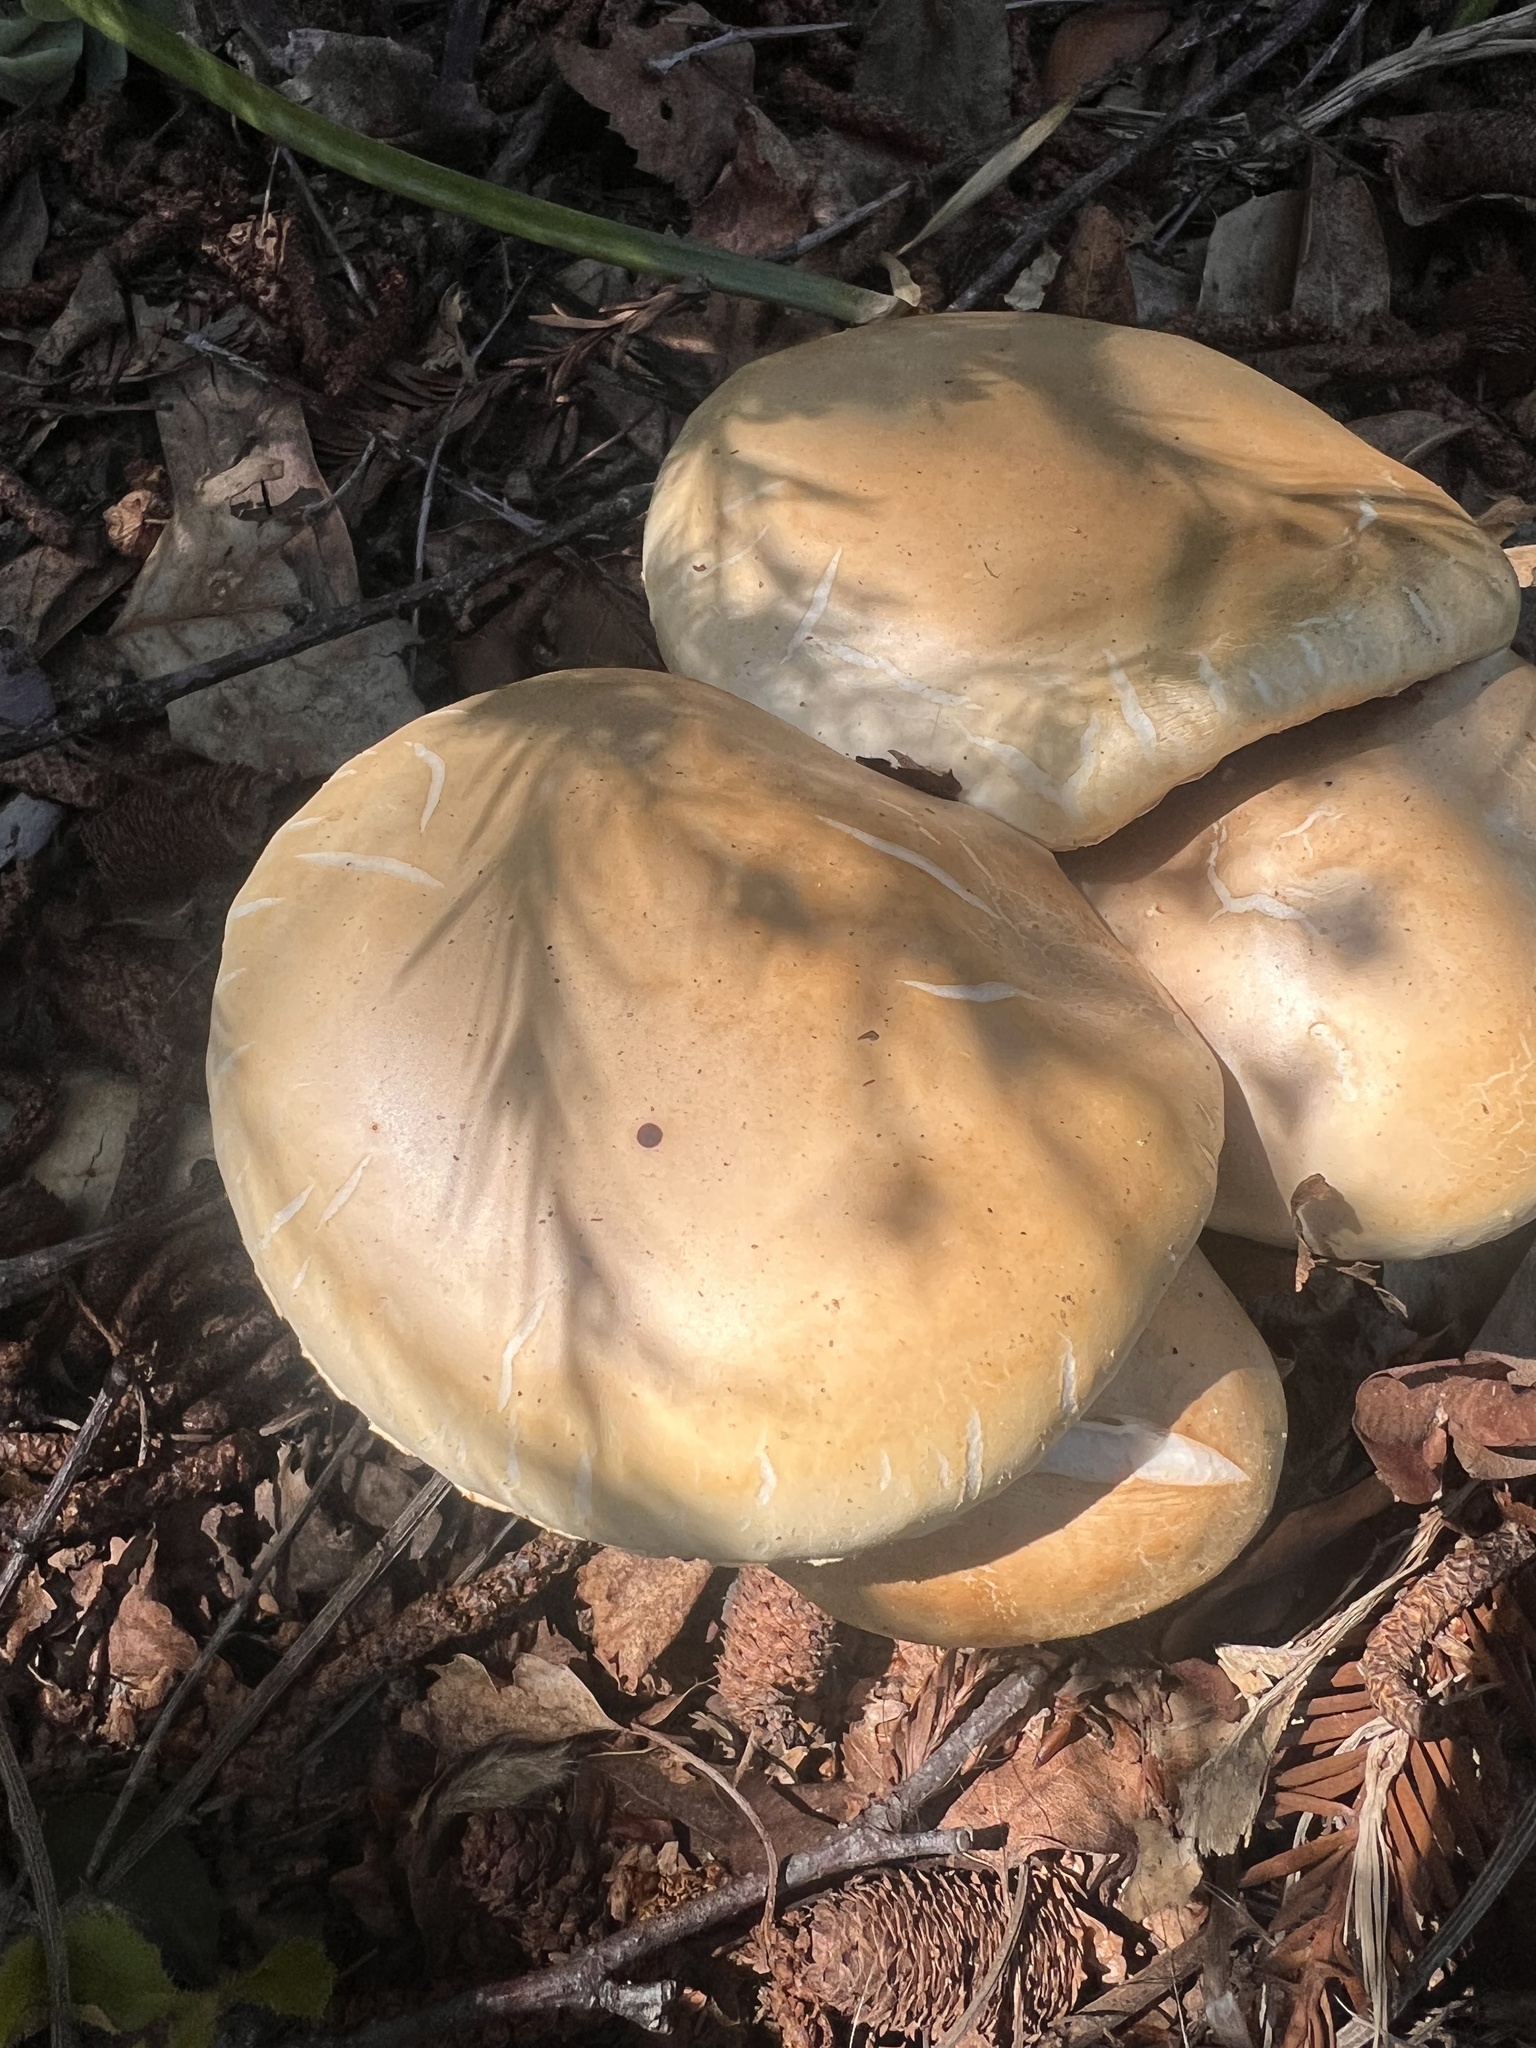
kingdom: Fungi
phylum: Basidiomycota
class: Agaricomycetes
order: Agaricales
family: Strophariaceae
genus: Agrocybe
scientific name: Agrocybe praecox
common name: Spring fieldcap
